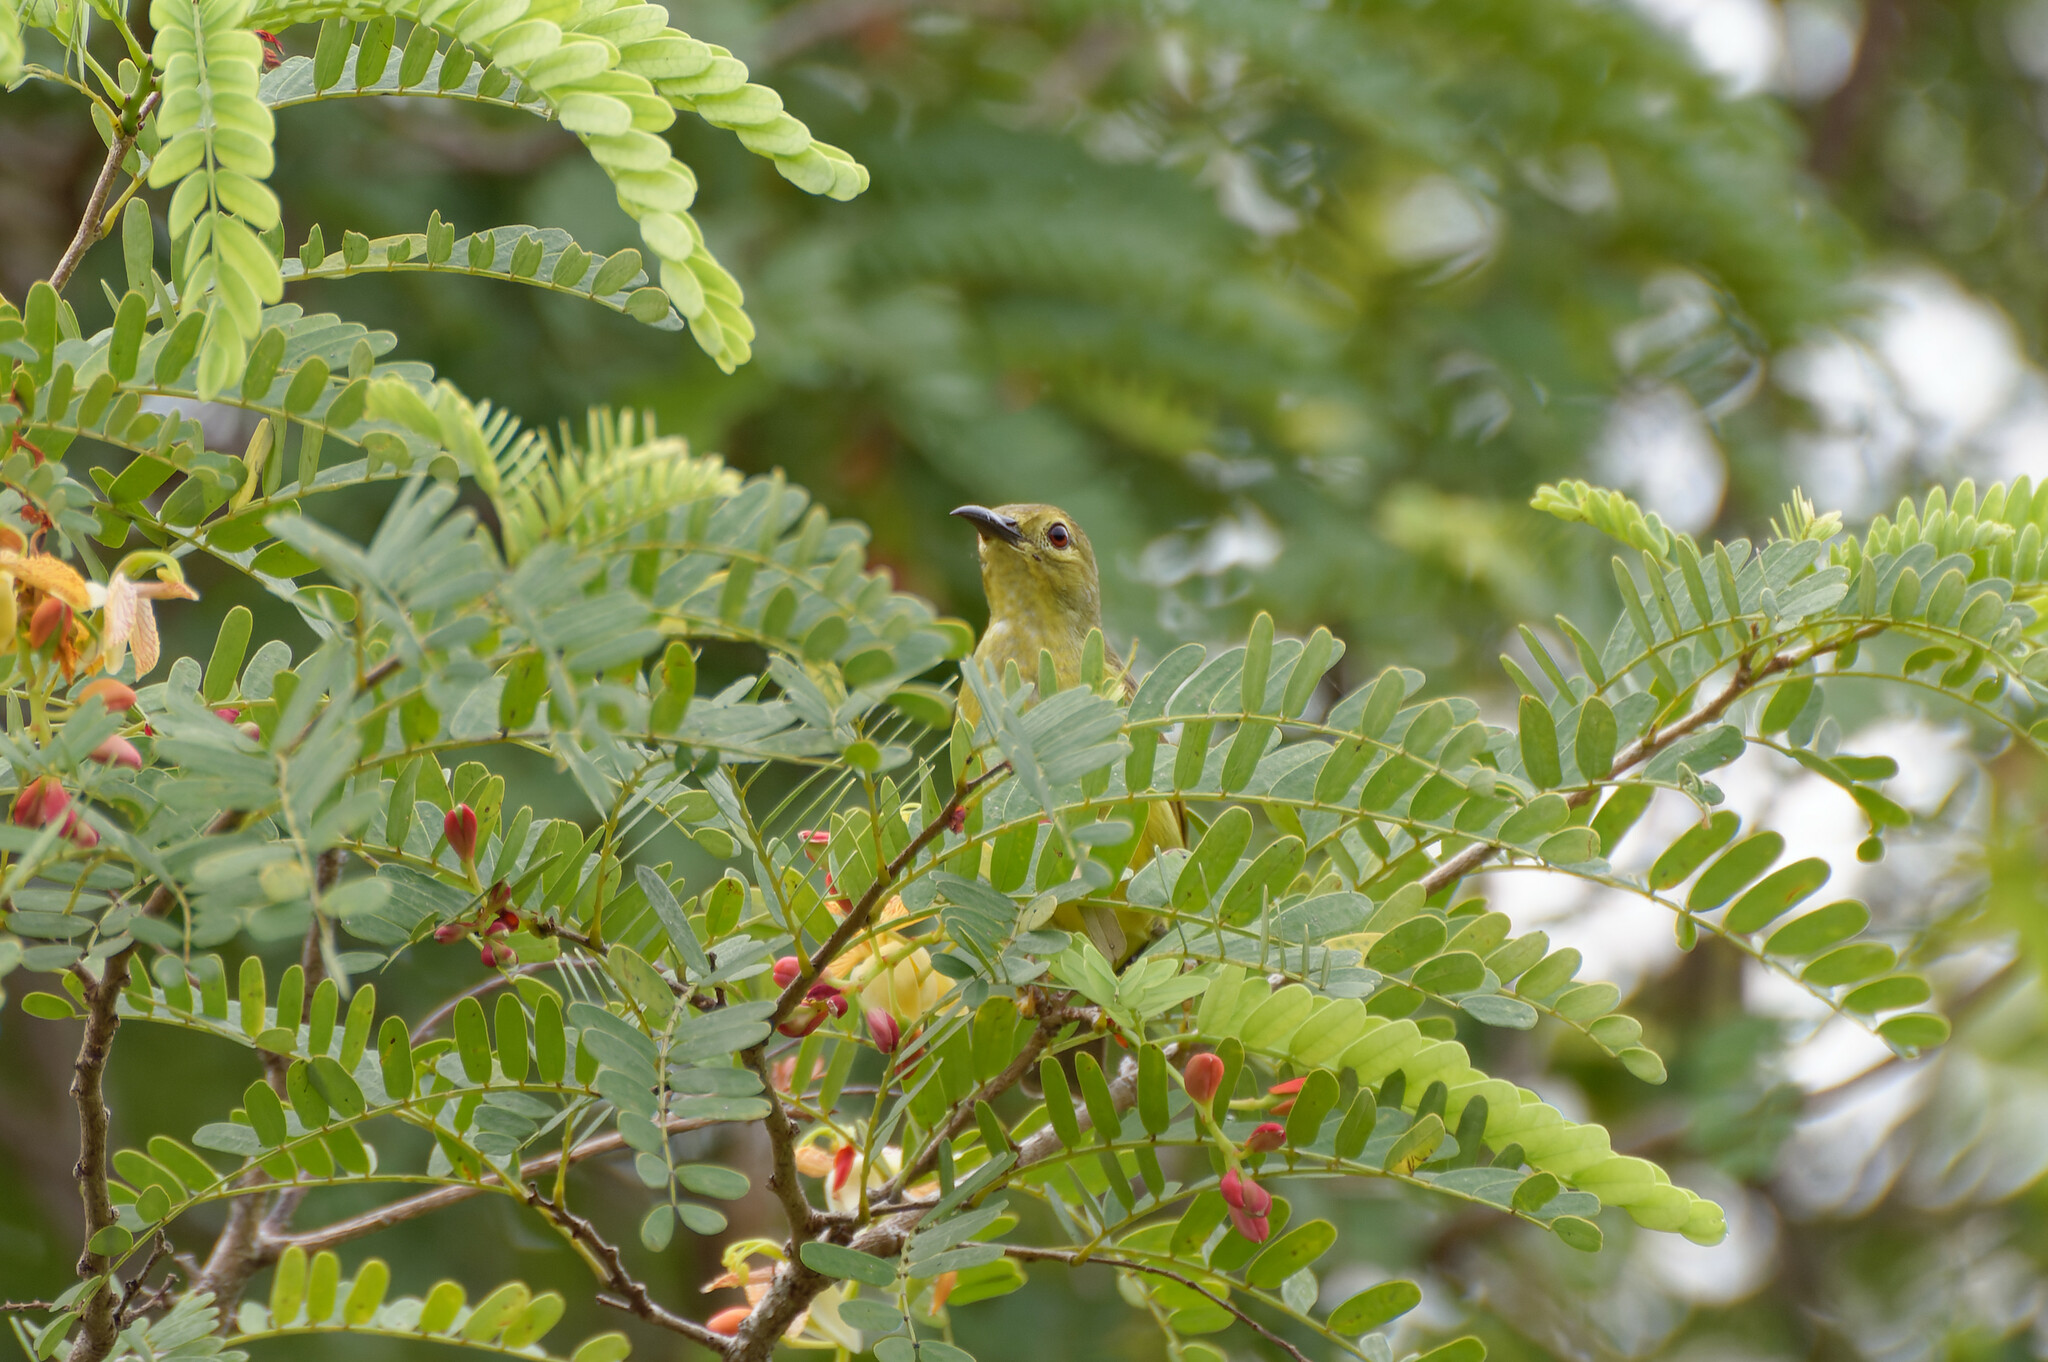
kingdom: Animalia
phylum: Chordata
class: Aves
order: Passeriformes
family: Nectariniidae
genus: Anthreptes
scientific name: Anthreptes malacensis
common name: Brown-throated sunbird
